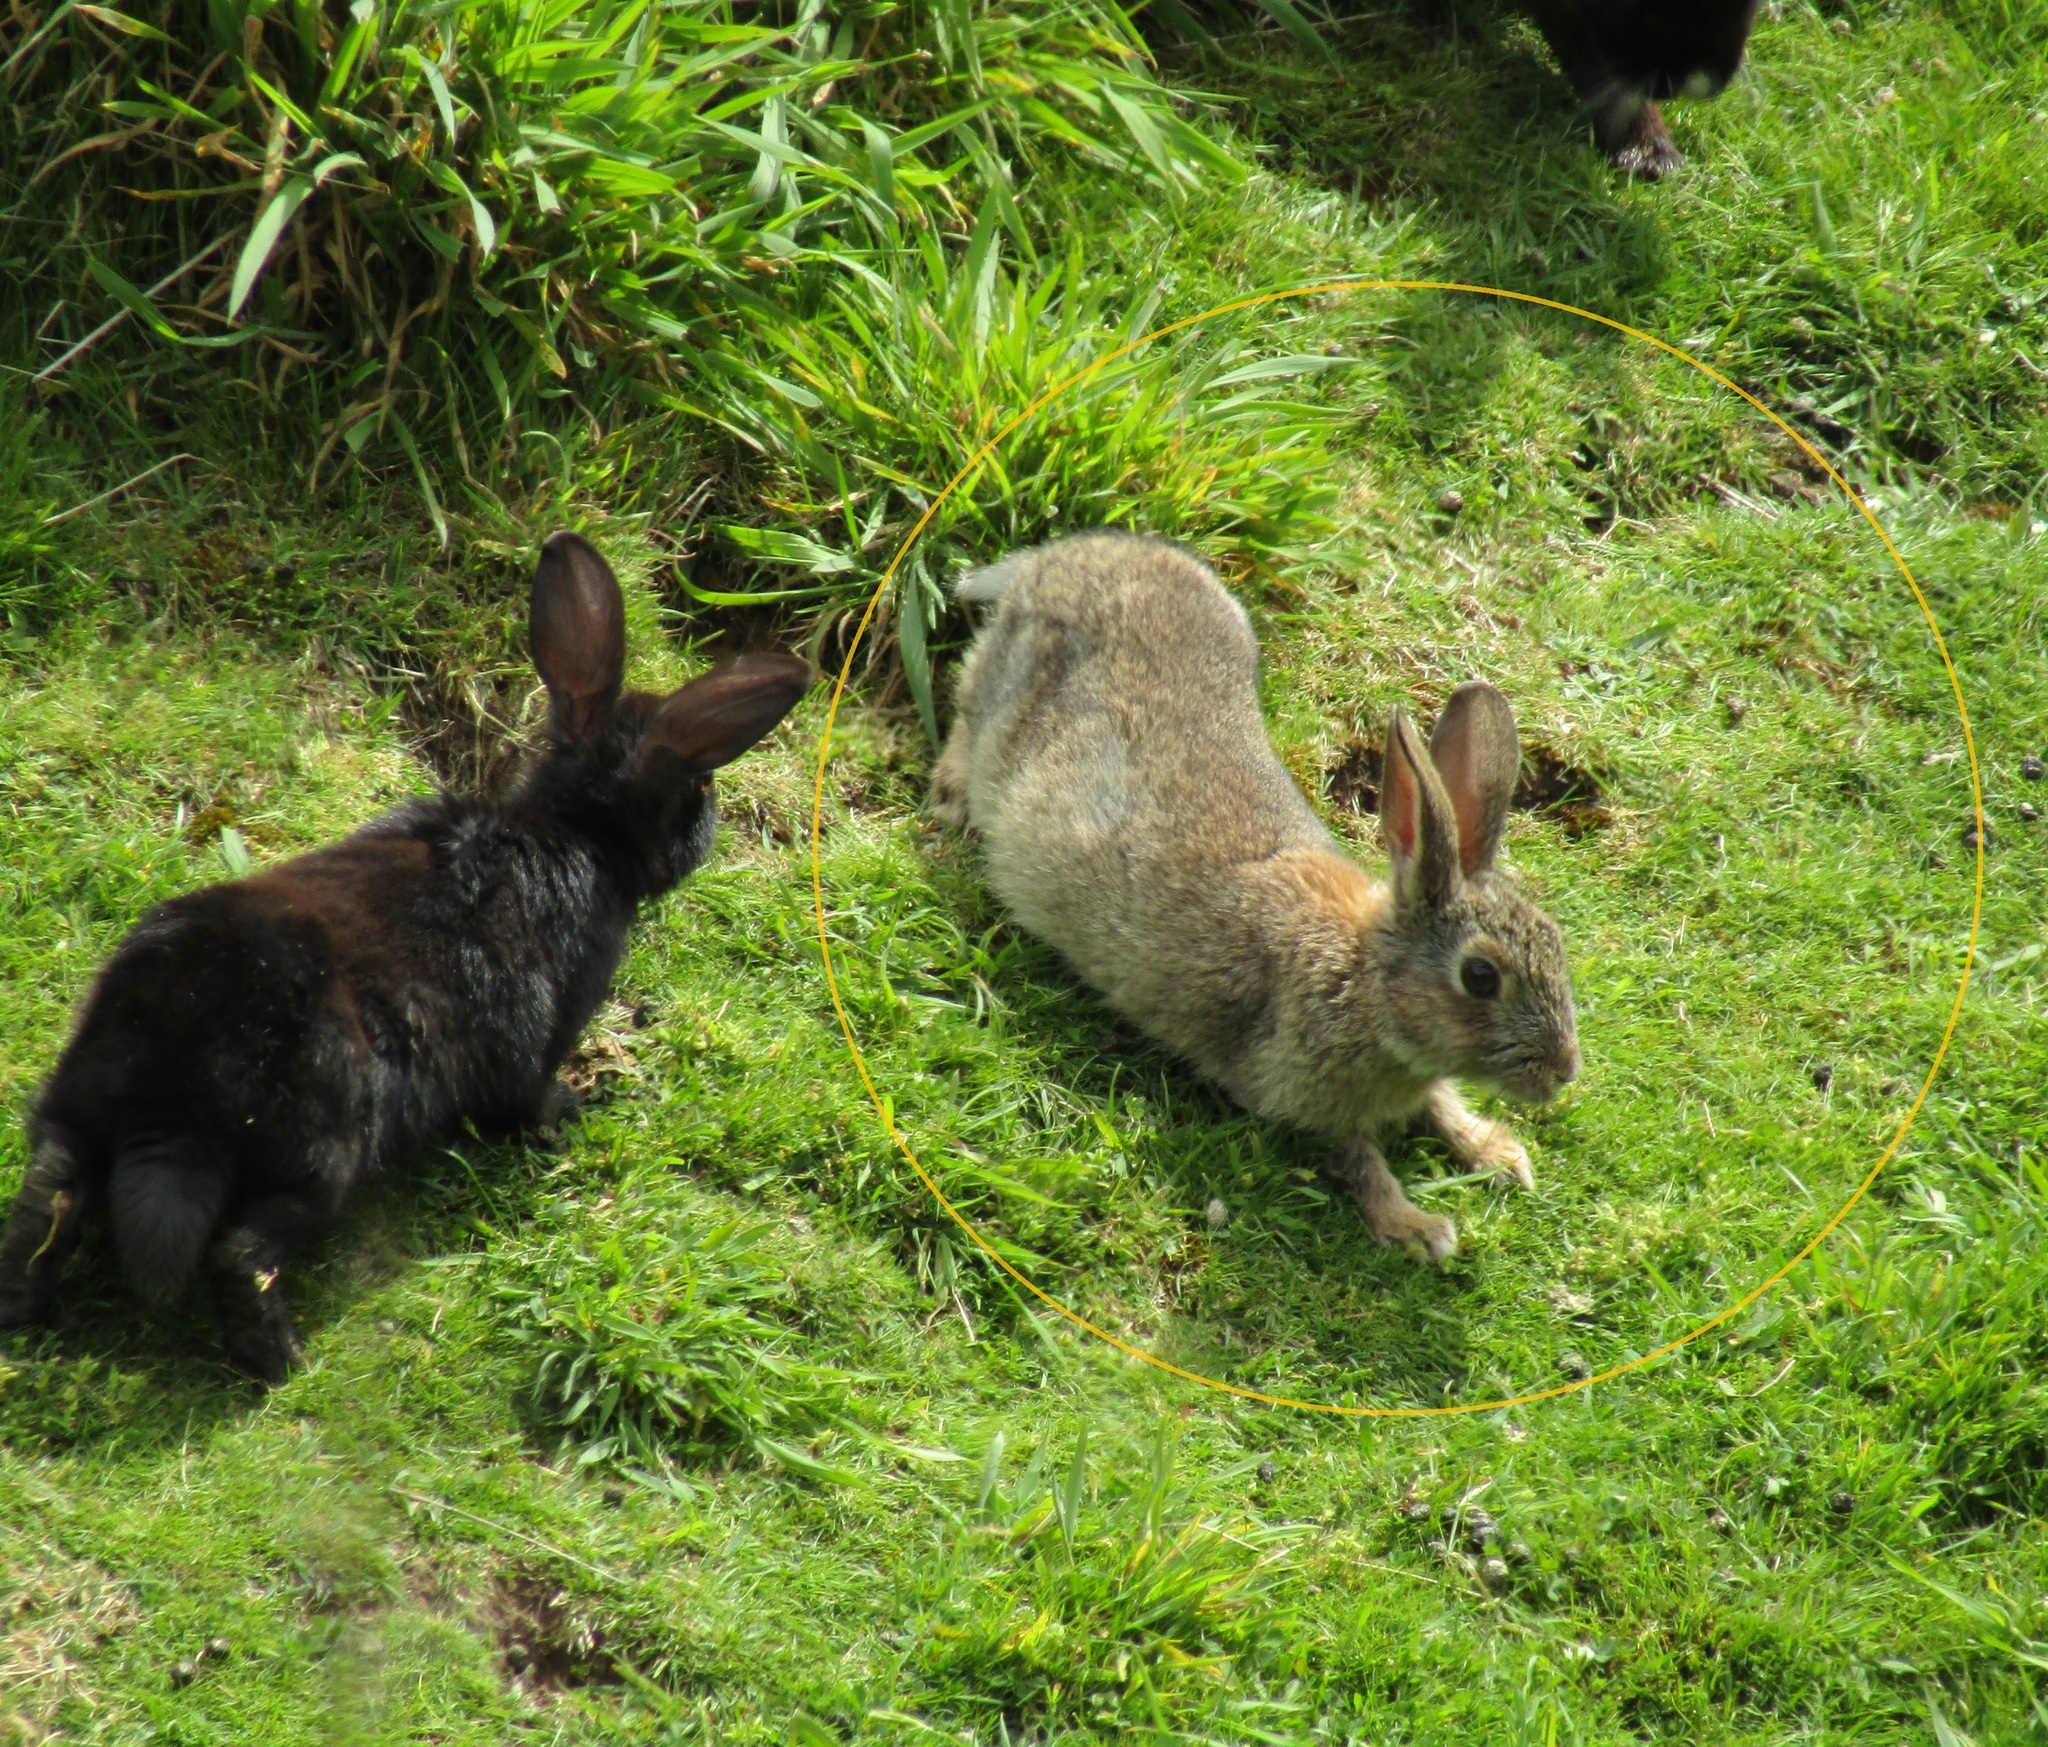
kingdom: Animalia
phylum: Chordata
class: Mammalia
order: Lagomorpha
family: Leporidae
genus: Oryctolagus
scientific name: Oryctolagus cuniculus
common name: European rabbit
